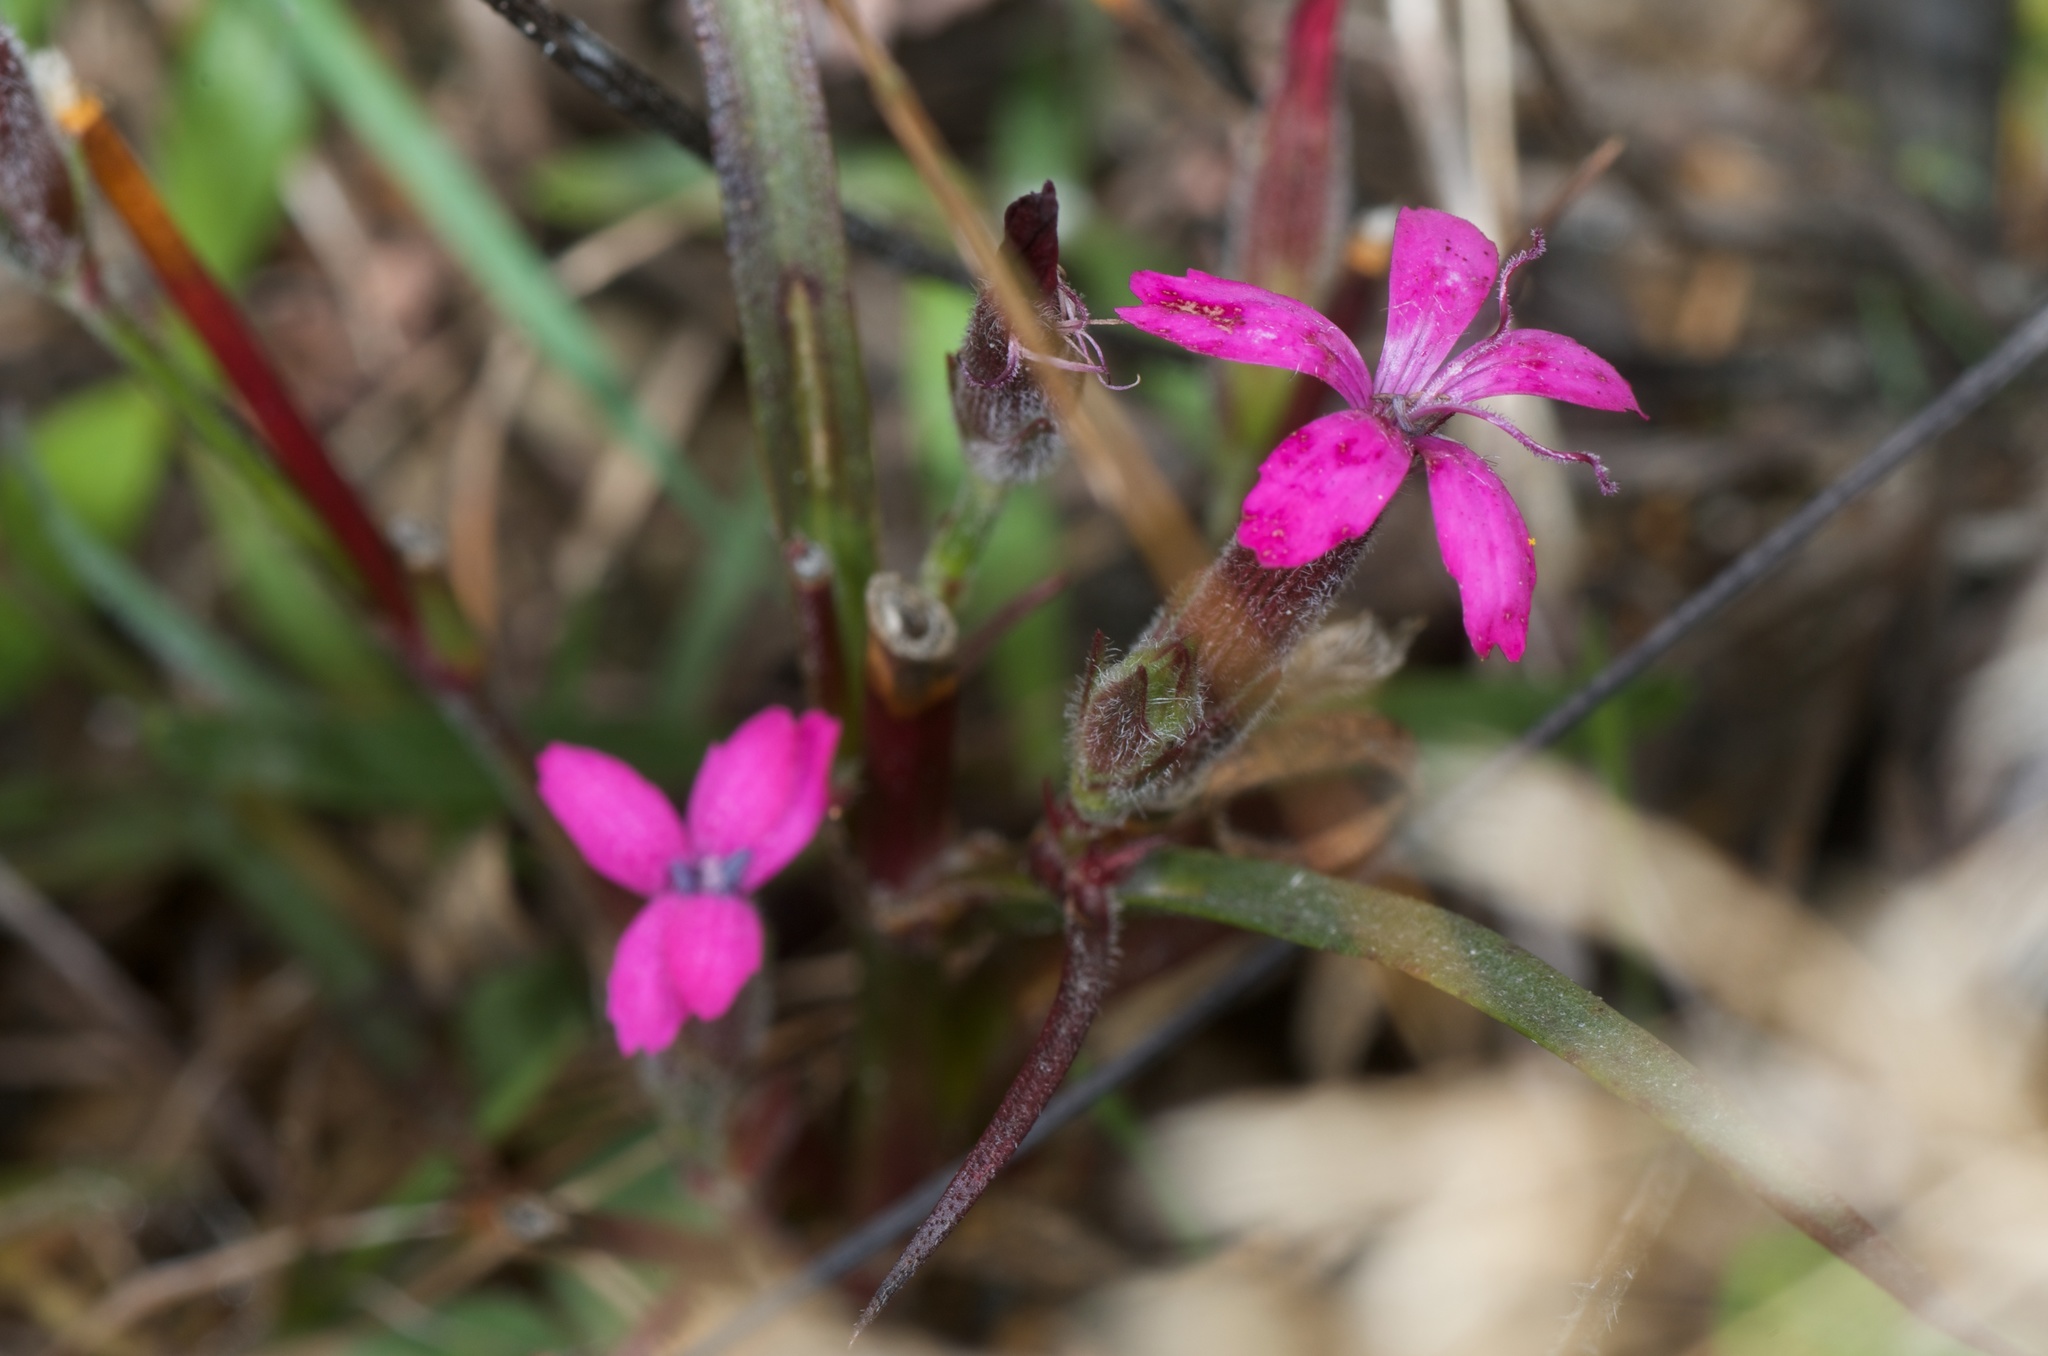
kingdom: Plantae
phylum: Tracheophyta
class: Magnoliopsida
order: Caryophyllales
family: Caryophyllaceae
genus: Dianthus
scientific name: Dianthus armeria
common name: Deptford pink
